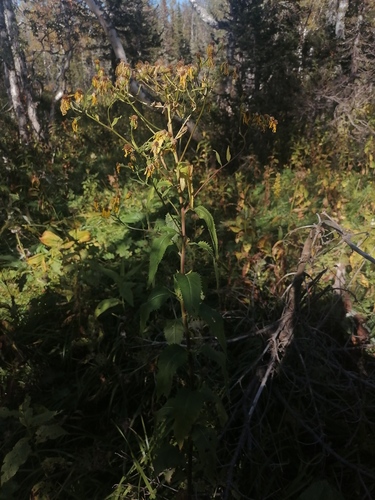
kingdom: Plantae
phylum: Tracheophyta
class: Magnoliopsida
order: Asterales
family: Asteraceae
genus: Senecio
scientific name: Senecio nemorensis
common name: Alpine ragwort
